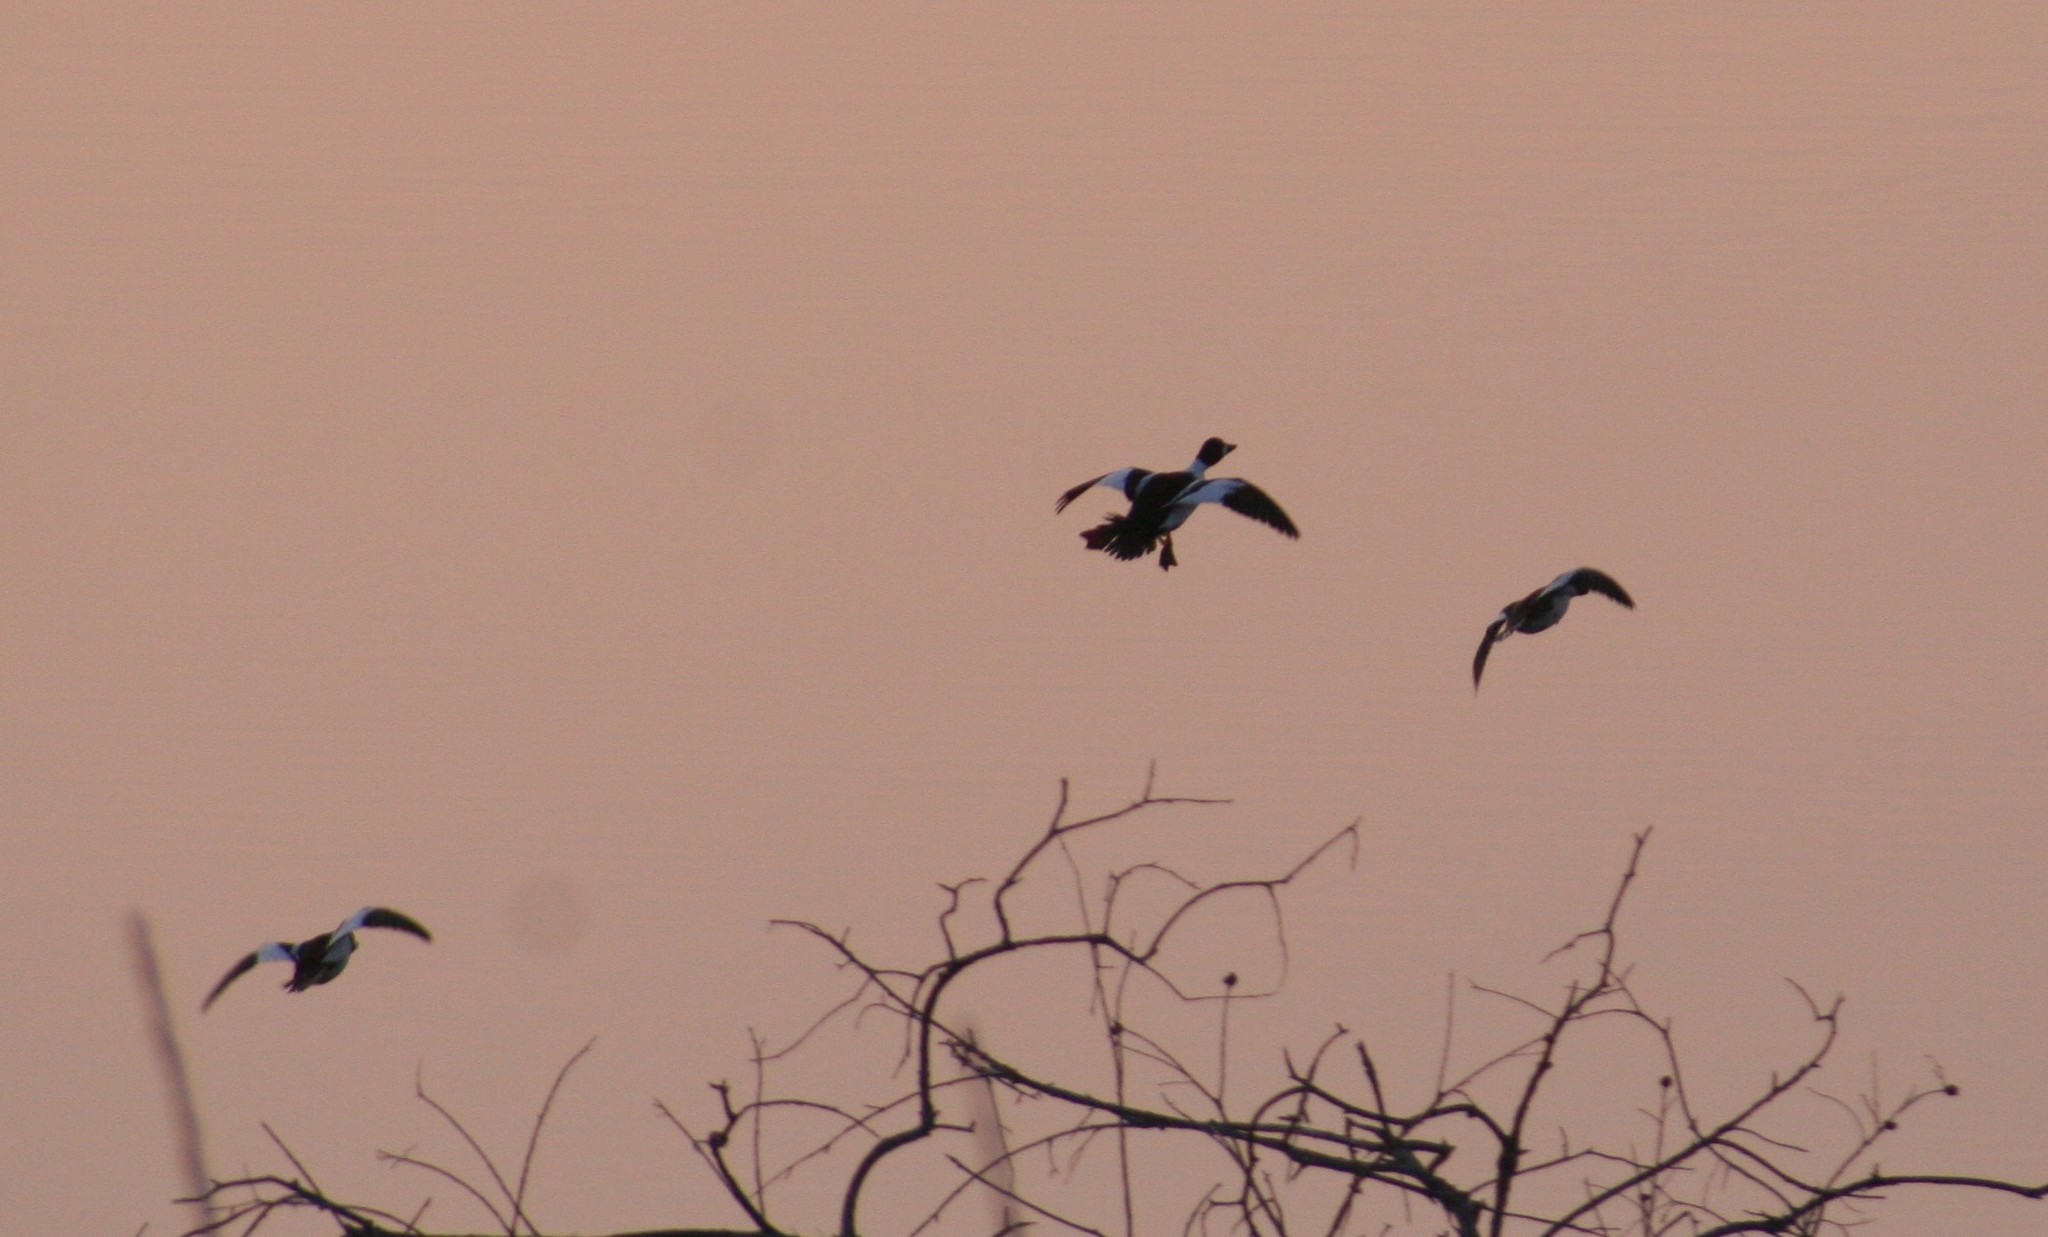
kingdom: Animalia
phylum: Chordata
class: Aves
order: Anseriformes
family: Anatidae
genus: Bucephala
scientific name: Bucephala clangula
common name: Common goldeneye
